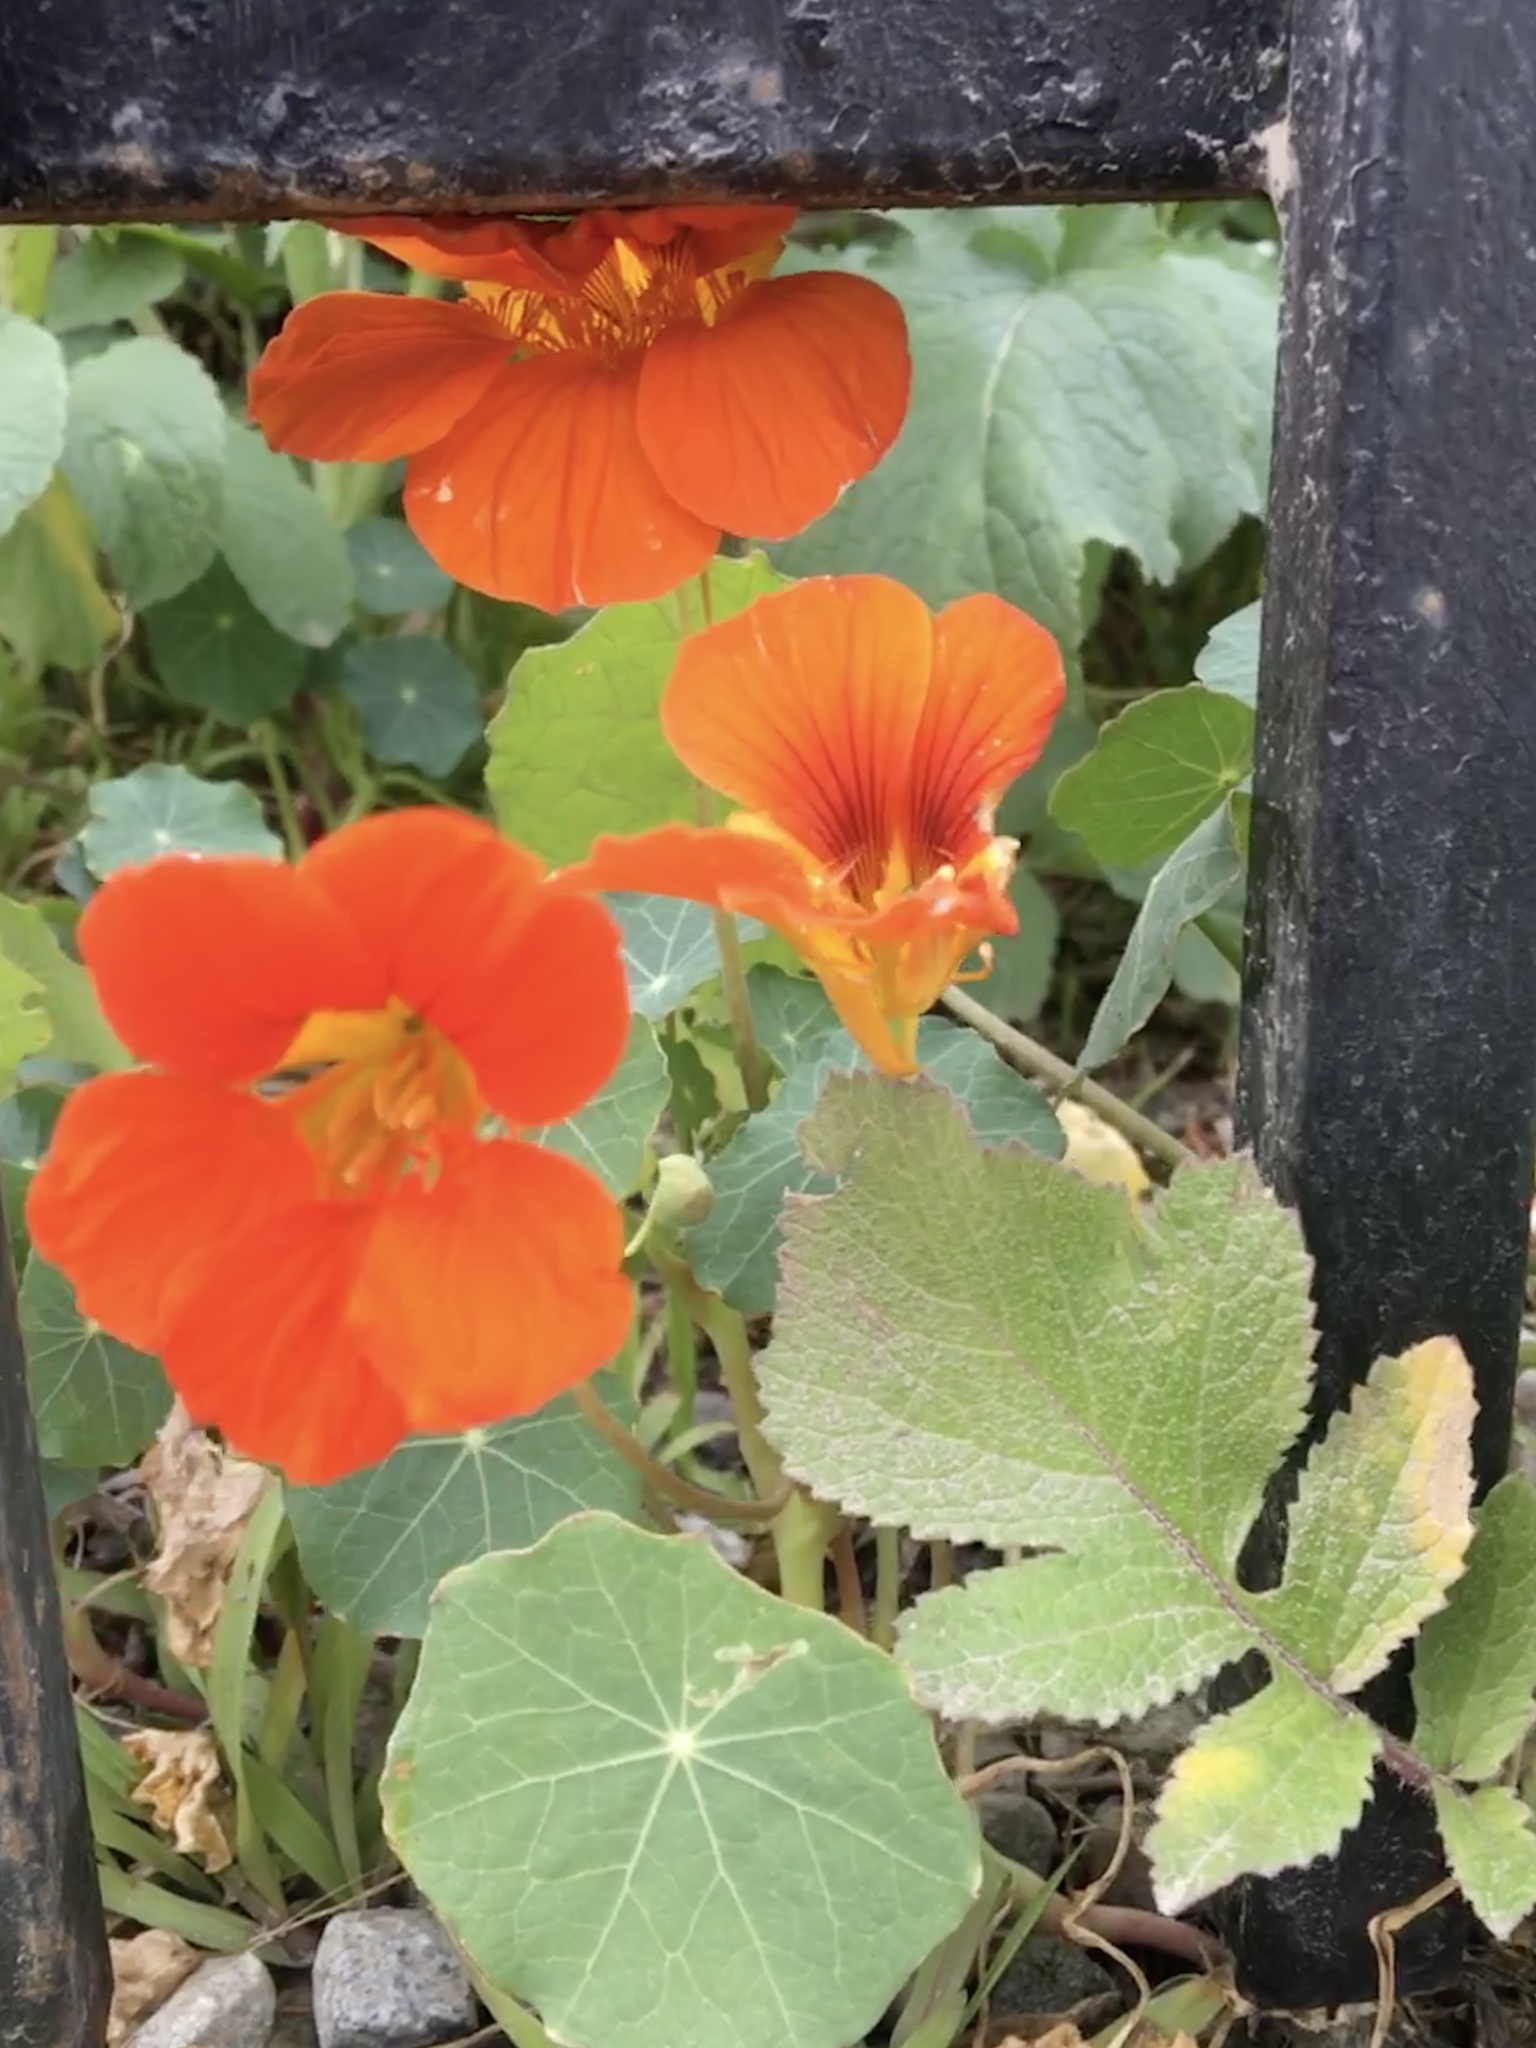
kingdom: Plantae
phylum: Tracheophyta
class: Magnoliopsida
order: Brassicales
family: Tropaeolaceae
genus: Tropaeolum
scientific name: Tropaeolum majus
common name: Nasturtium
